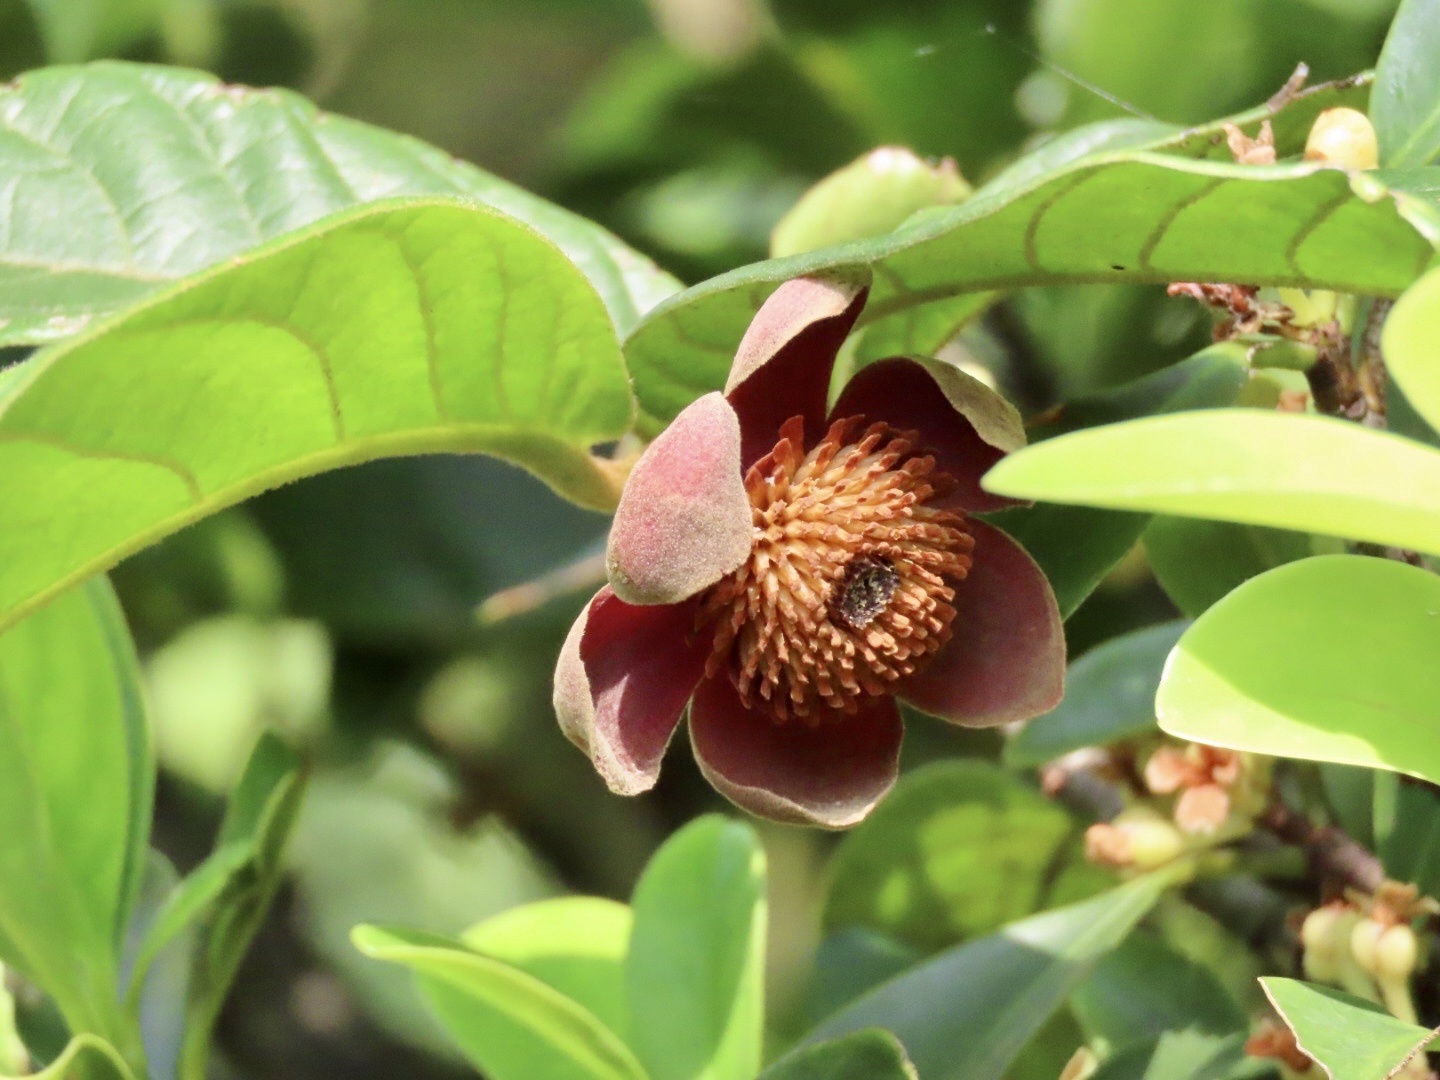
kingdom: Plantae
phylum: Tracheophyta
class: Magnoliopsida
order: Magnoliales
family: Annonaceae
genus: Uvaria
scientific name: Uvaria littoralis
